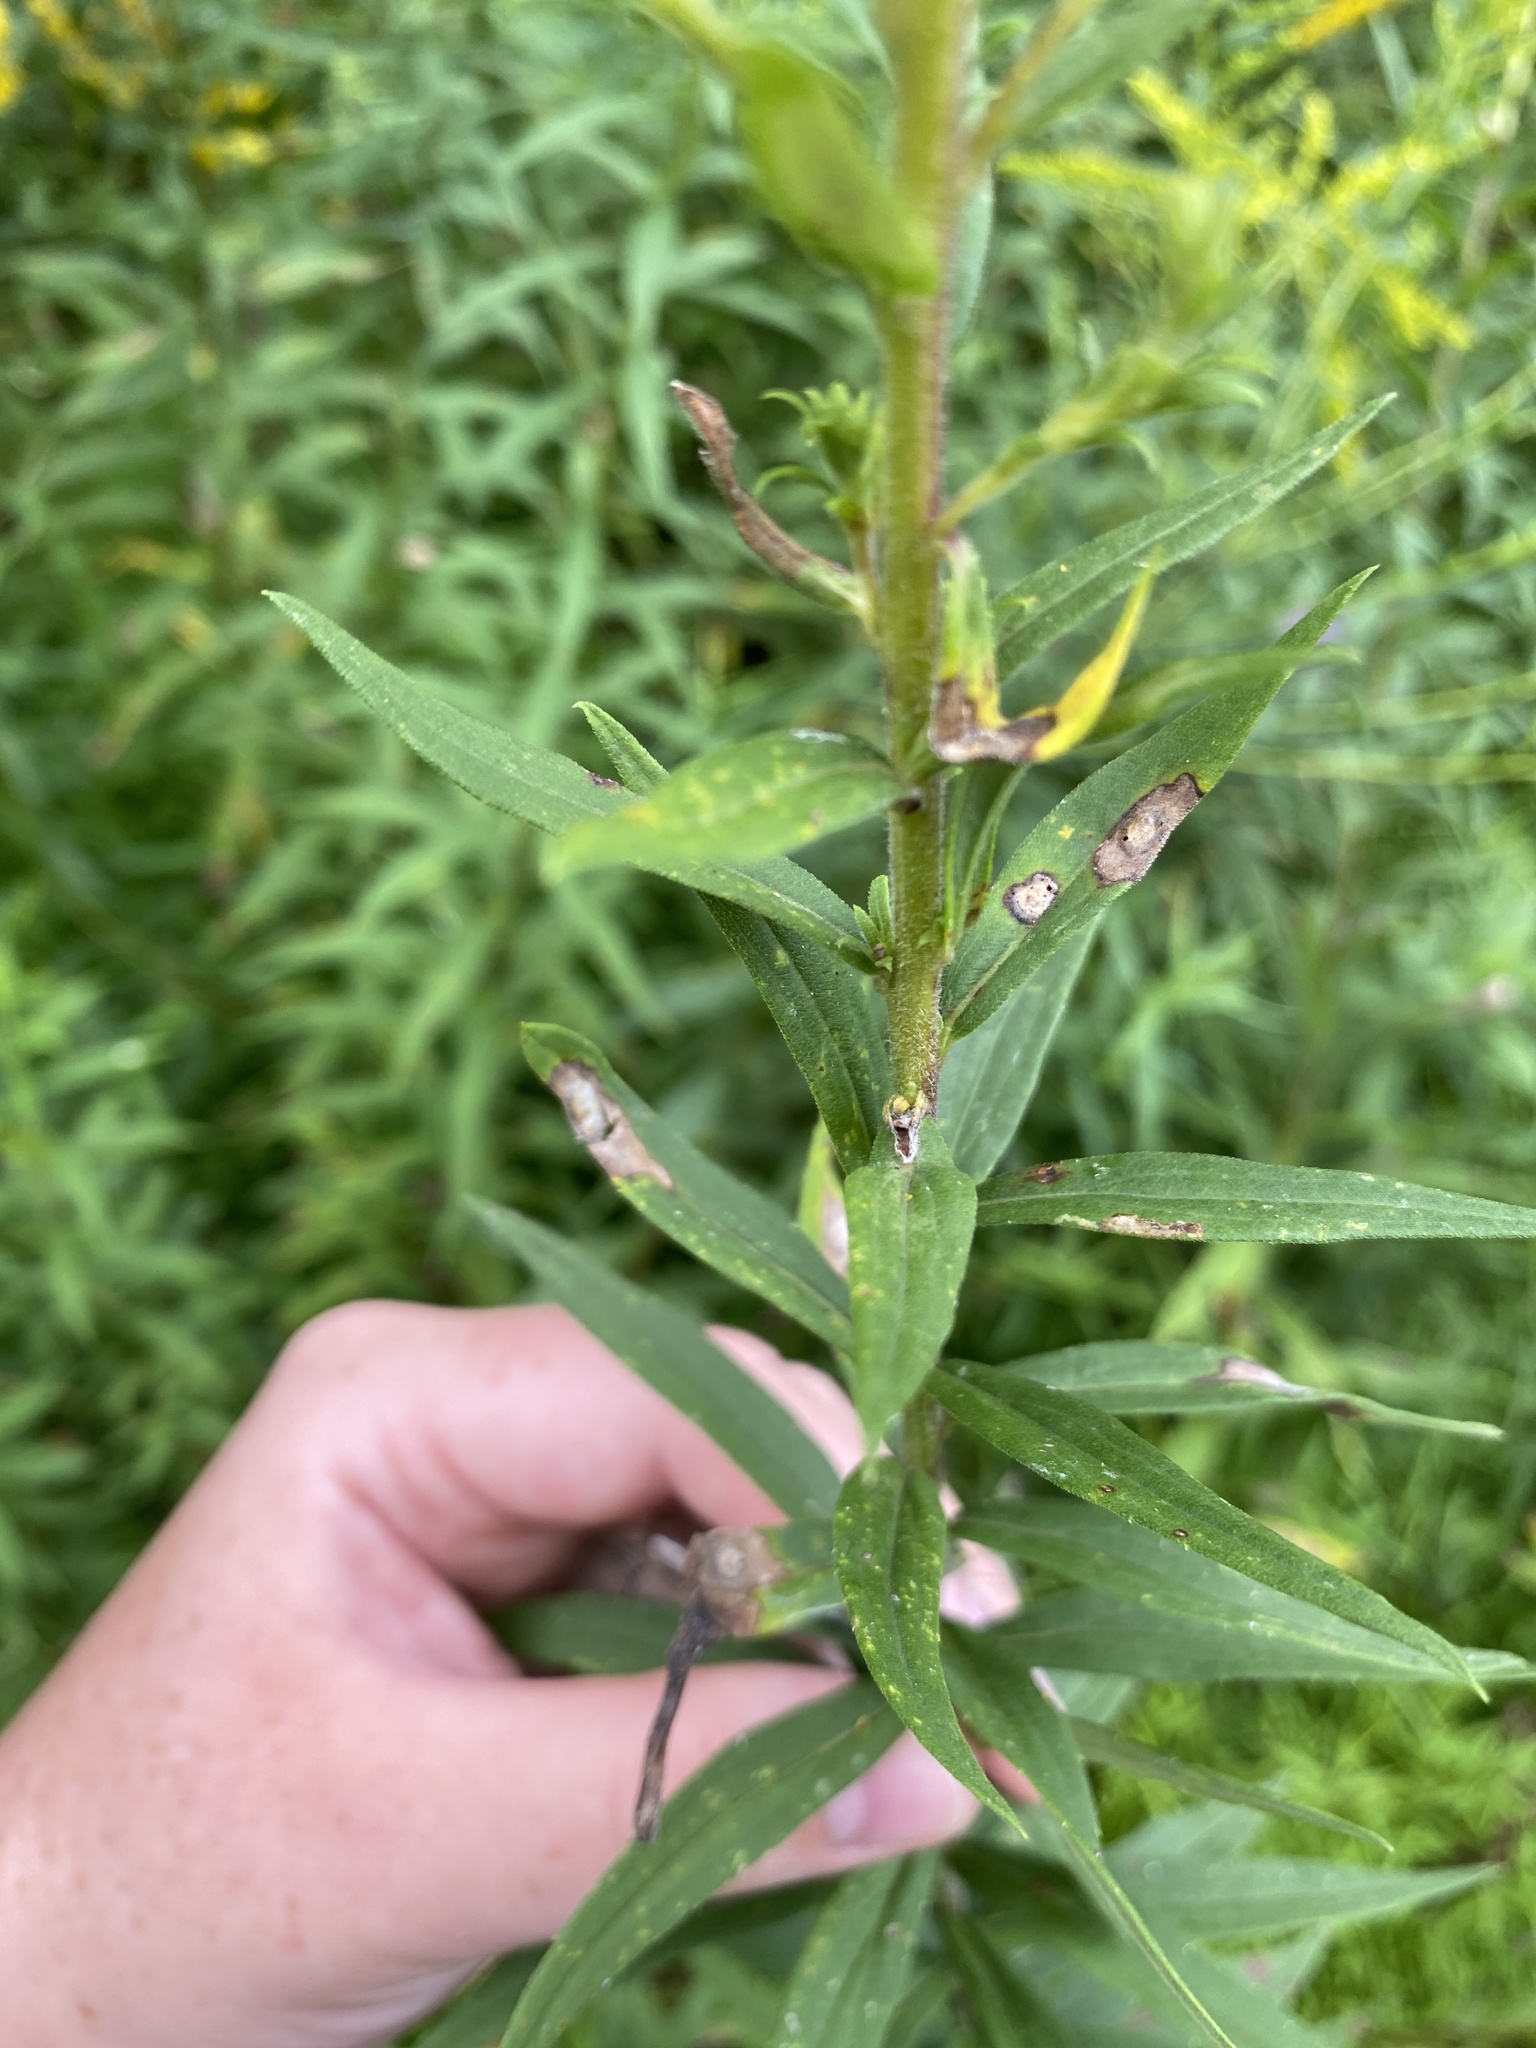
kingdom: Plantae
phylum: Tracheophyta
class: Magnoliopsida
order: Asterales
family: Asteraceae
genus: Solidago
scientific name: Solidago canadensis
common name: Canada goldenrod
